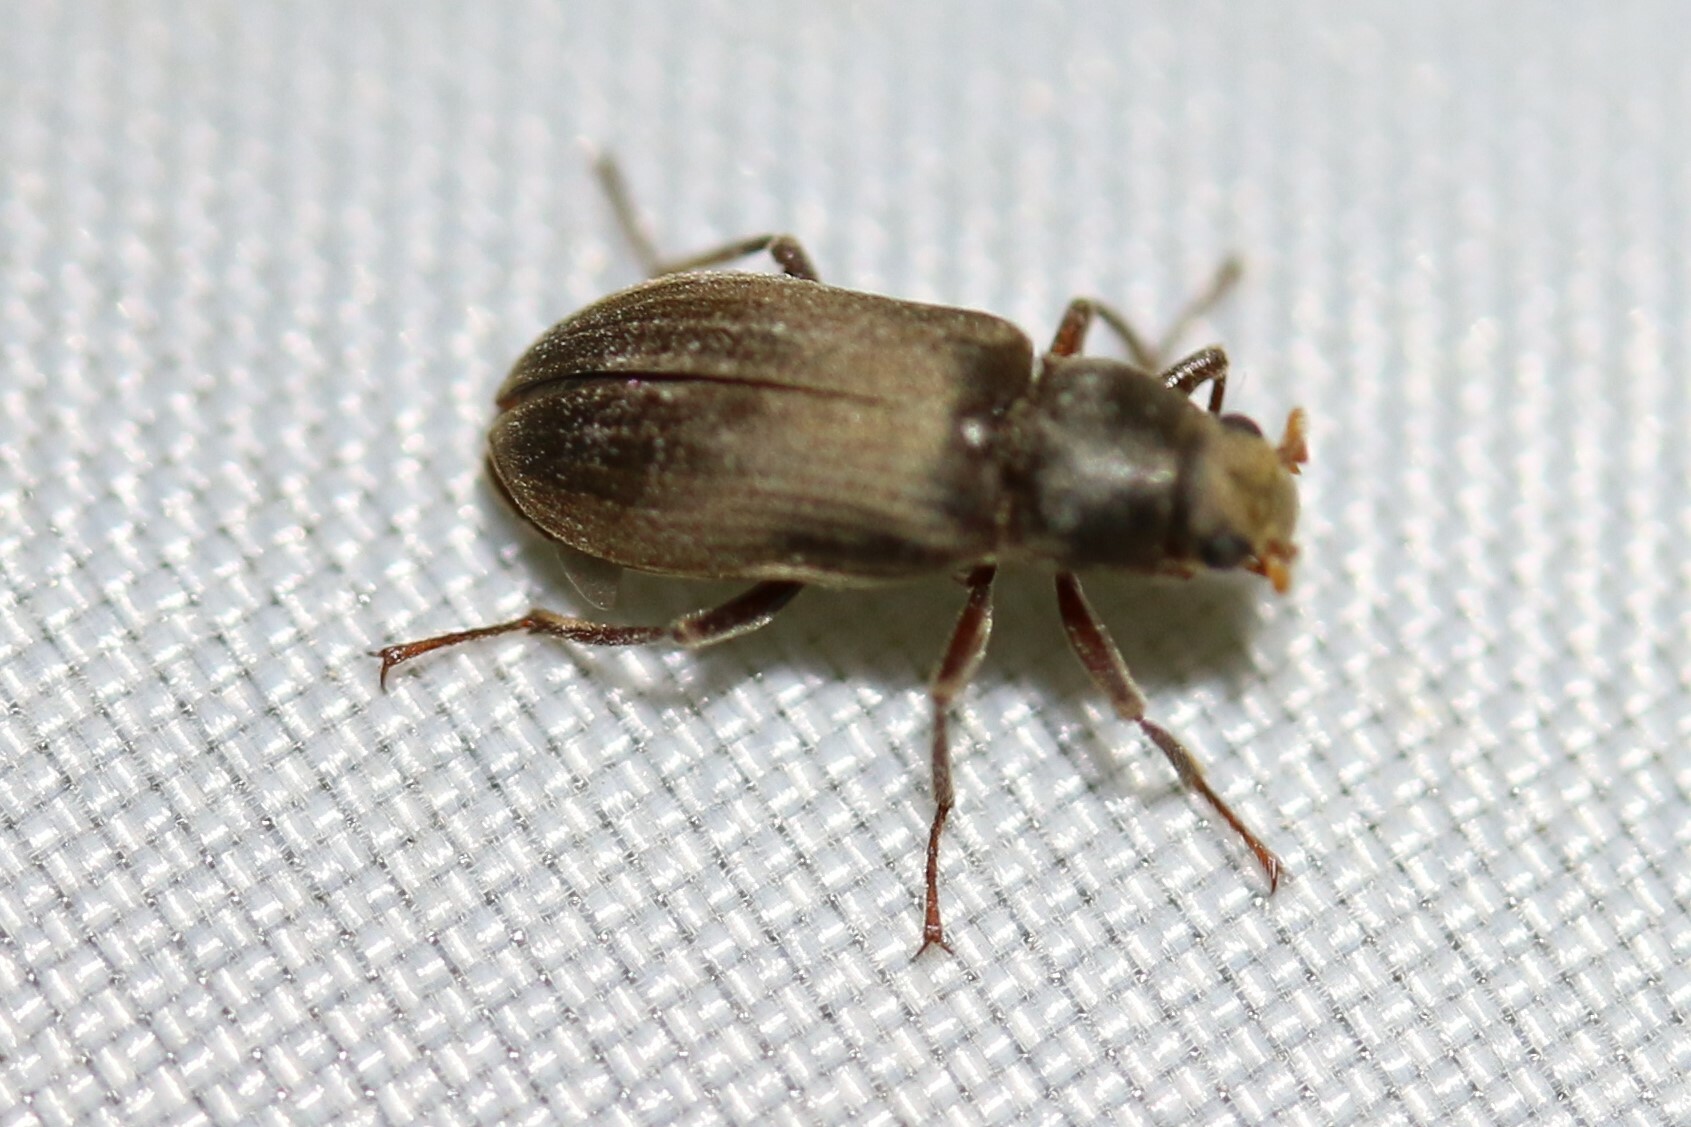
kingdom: Animalia
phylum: Arthropoda
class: Insecta
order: Coleoptera
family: Dryopidae
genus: Pomatinus
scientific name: Pomatinus substriatus
